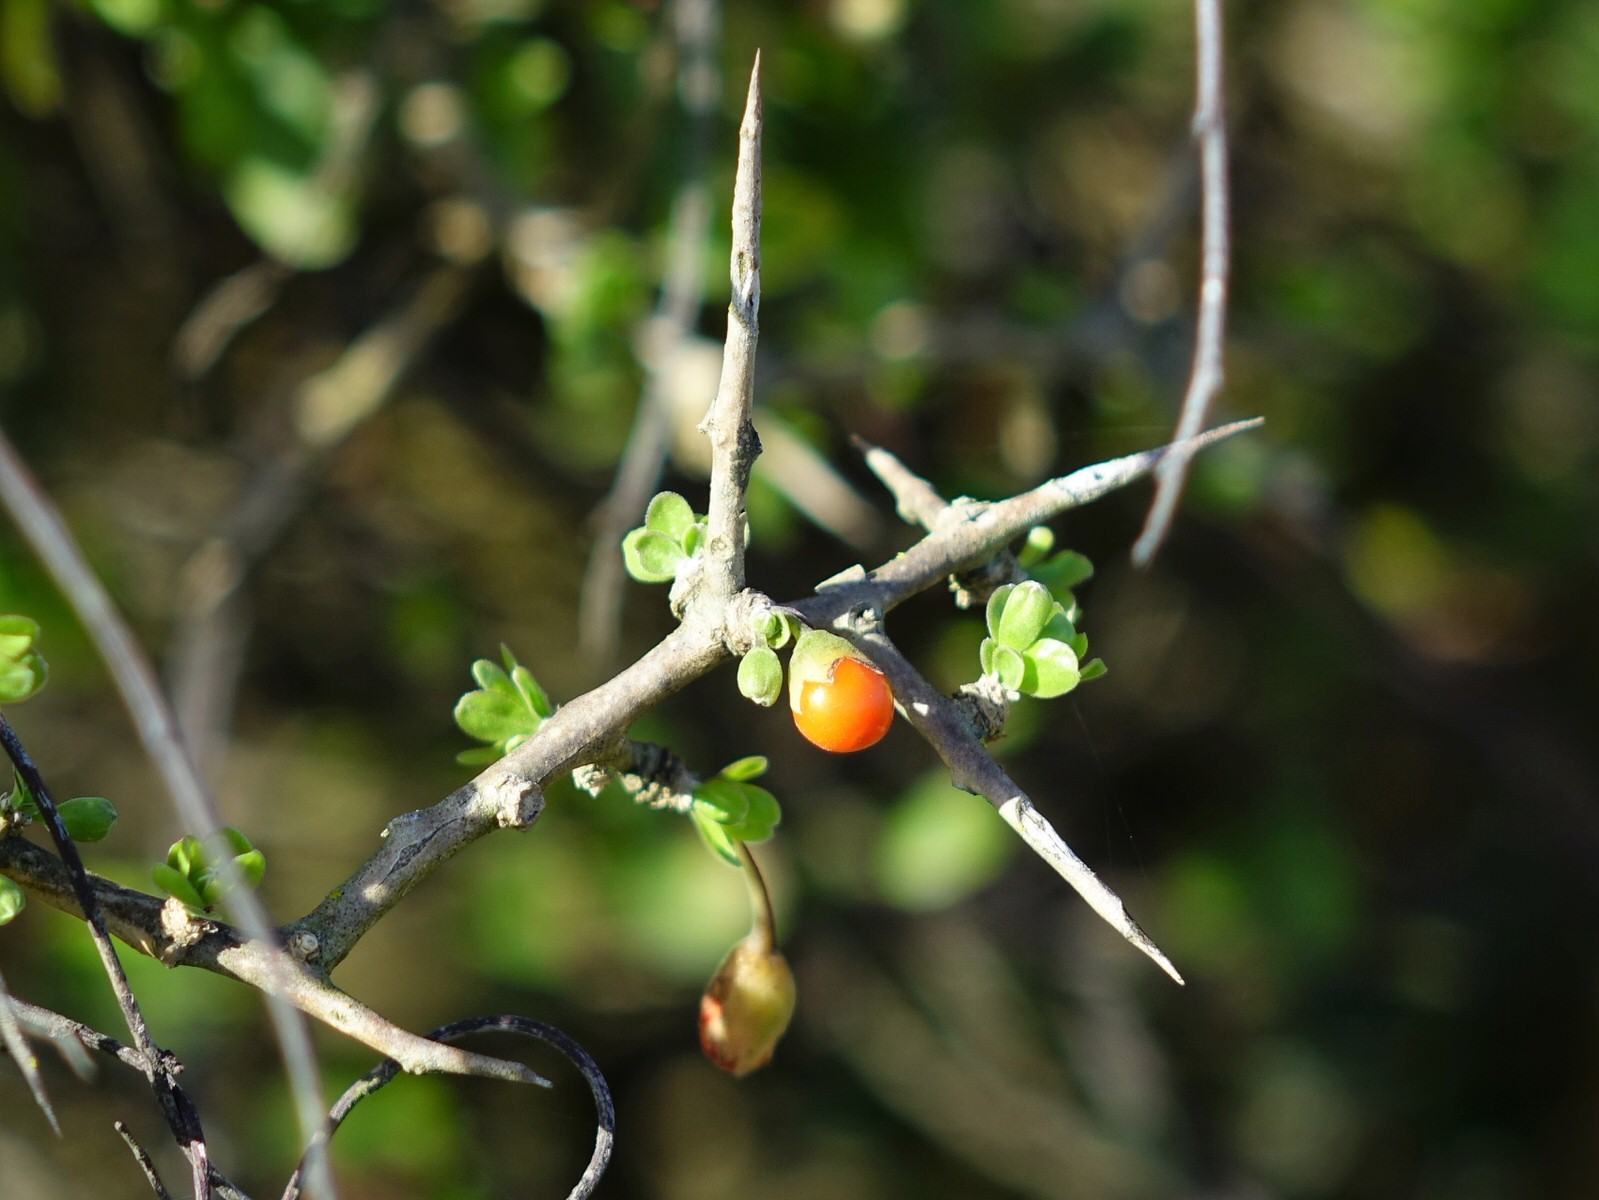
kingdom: Plantae
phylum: Tracheophyta
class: Magnoliopsida
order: Solanales
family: Solanaceae
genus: Lycium
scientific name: Lycium ferocissimum
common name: African boxthorn
